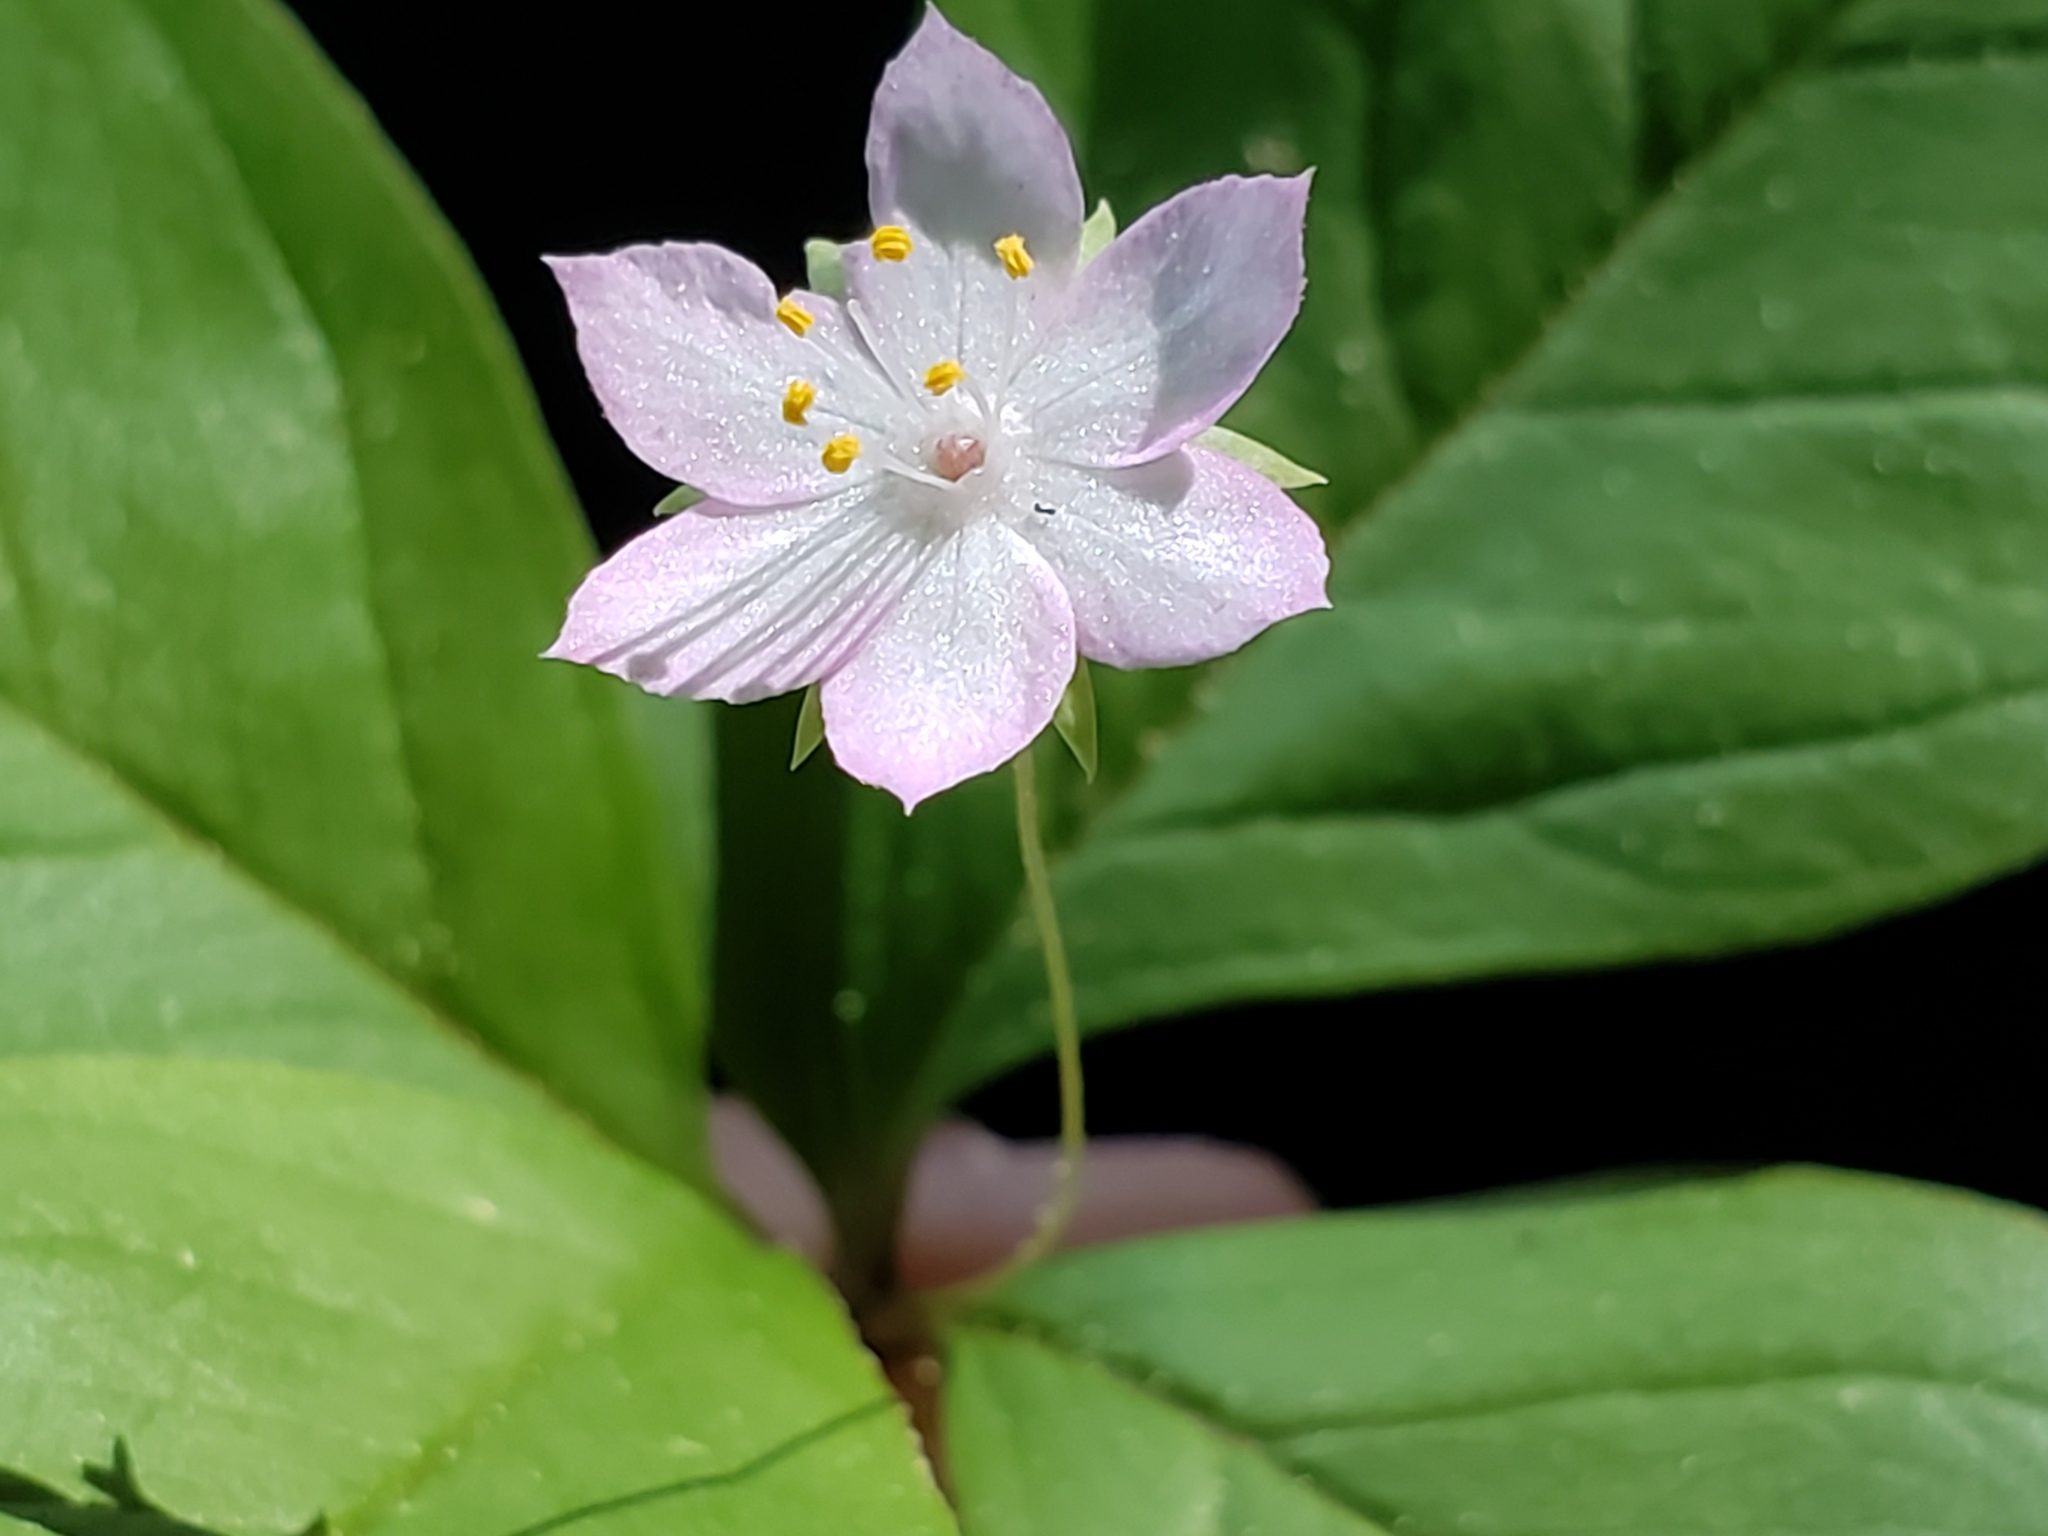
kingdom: Plantae
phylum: Tracheophyta
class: Magnoliopsida
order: Ericales
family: Primulaceae
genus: Lysimachia
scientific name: Lysimachia latifolia
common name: Pacific starflower
